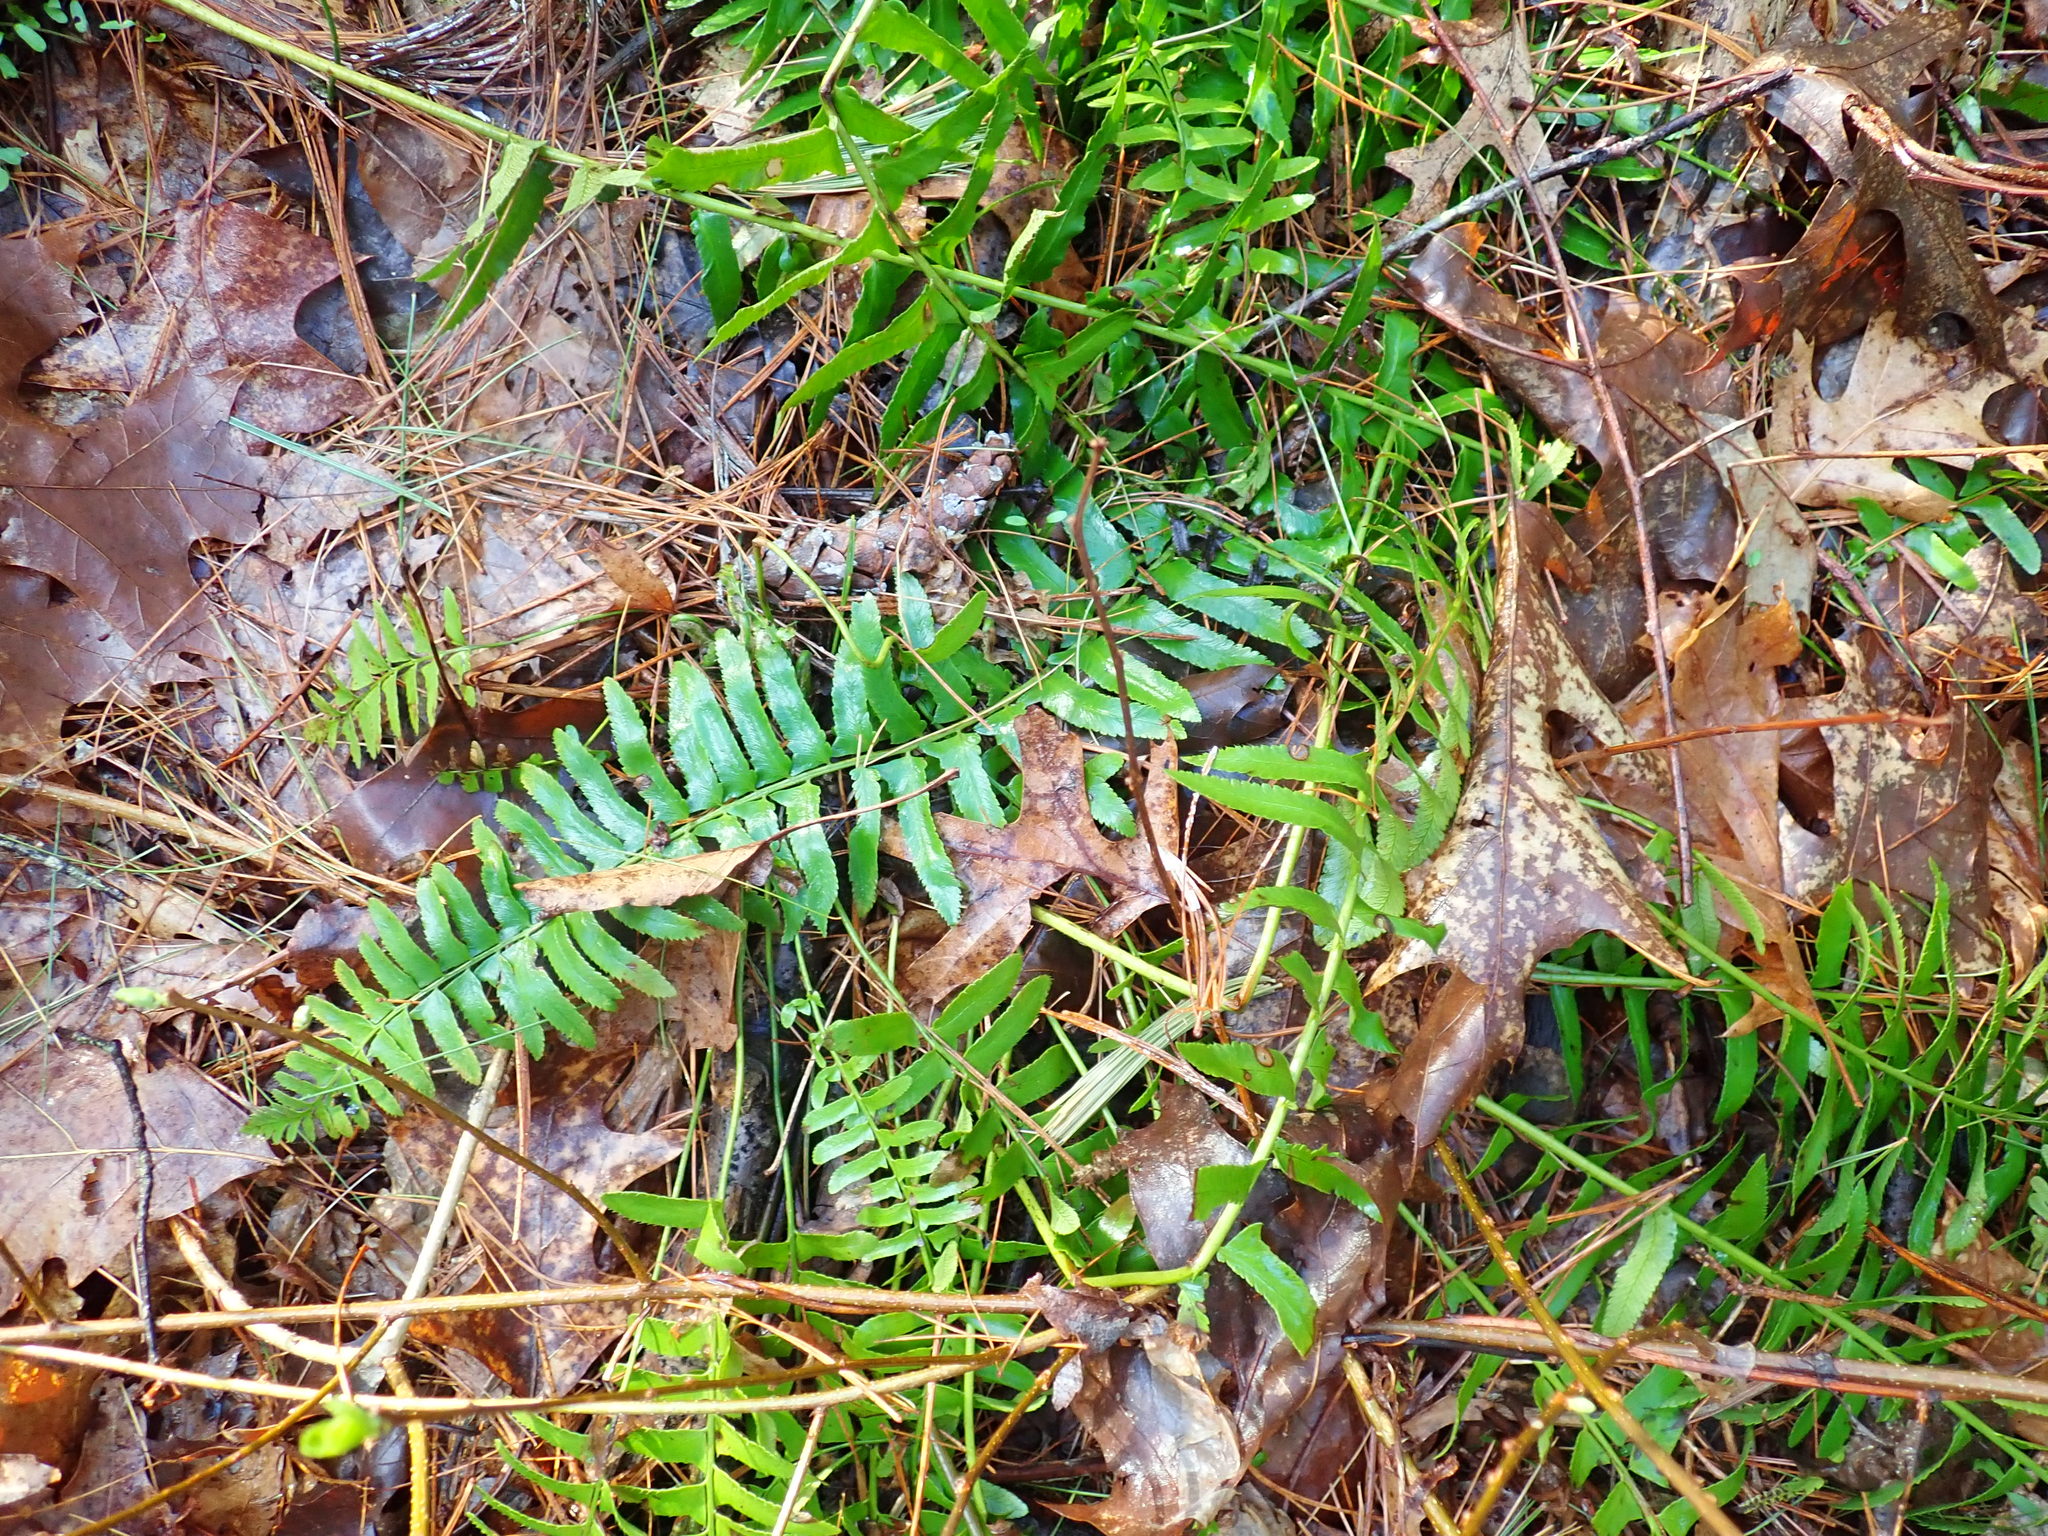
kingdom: Plantae
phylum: Tracheophyta
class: Polypodiopsida
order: Polypodiales
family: Dryopteridaceae
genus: Polystichum
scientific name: Polystichum acrostichoides
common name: Christmas fern
